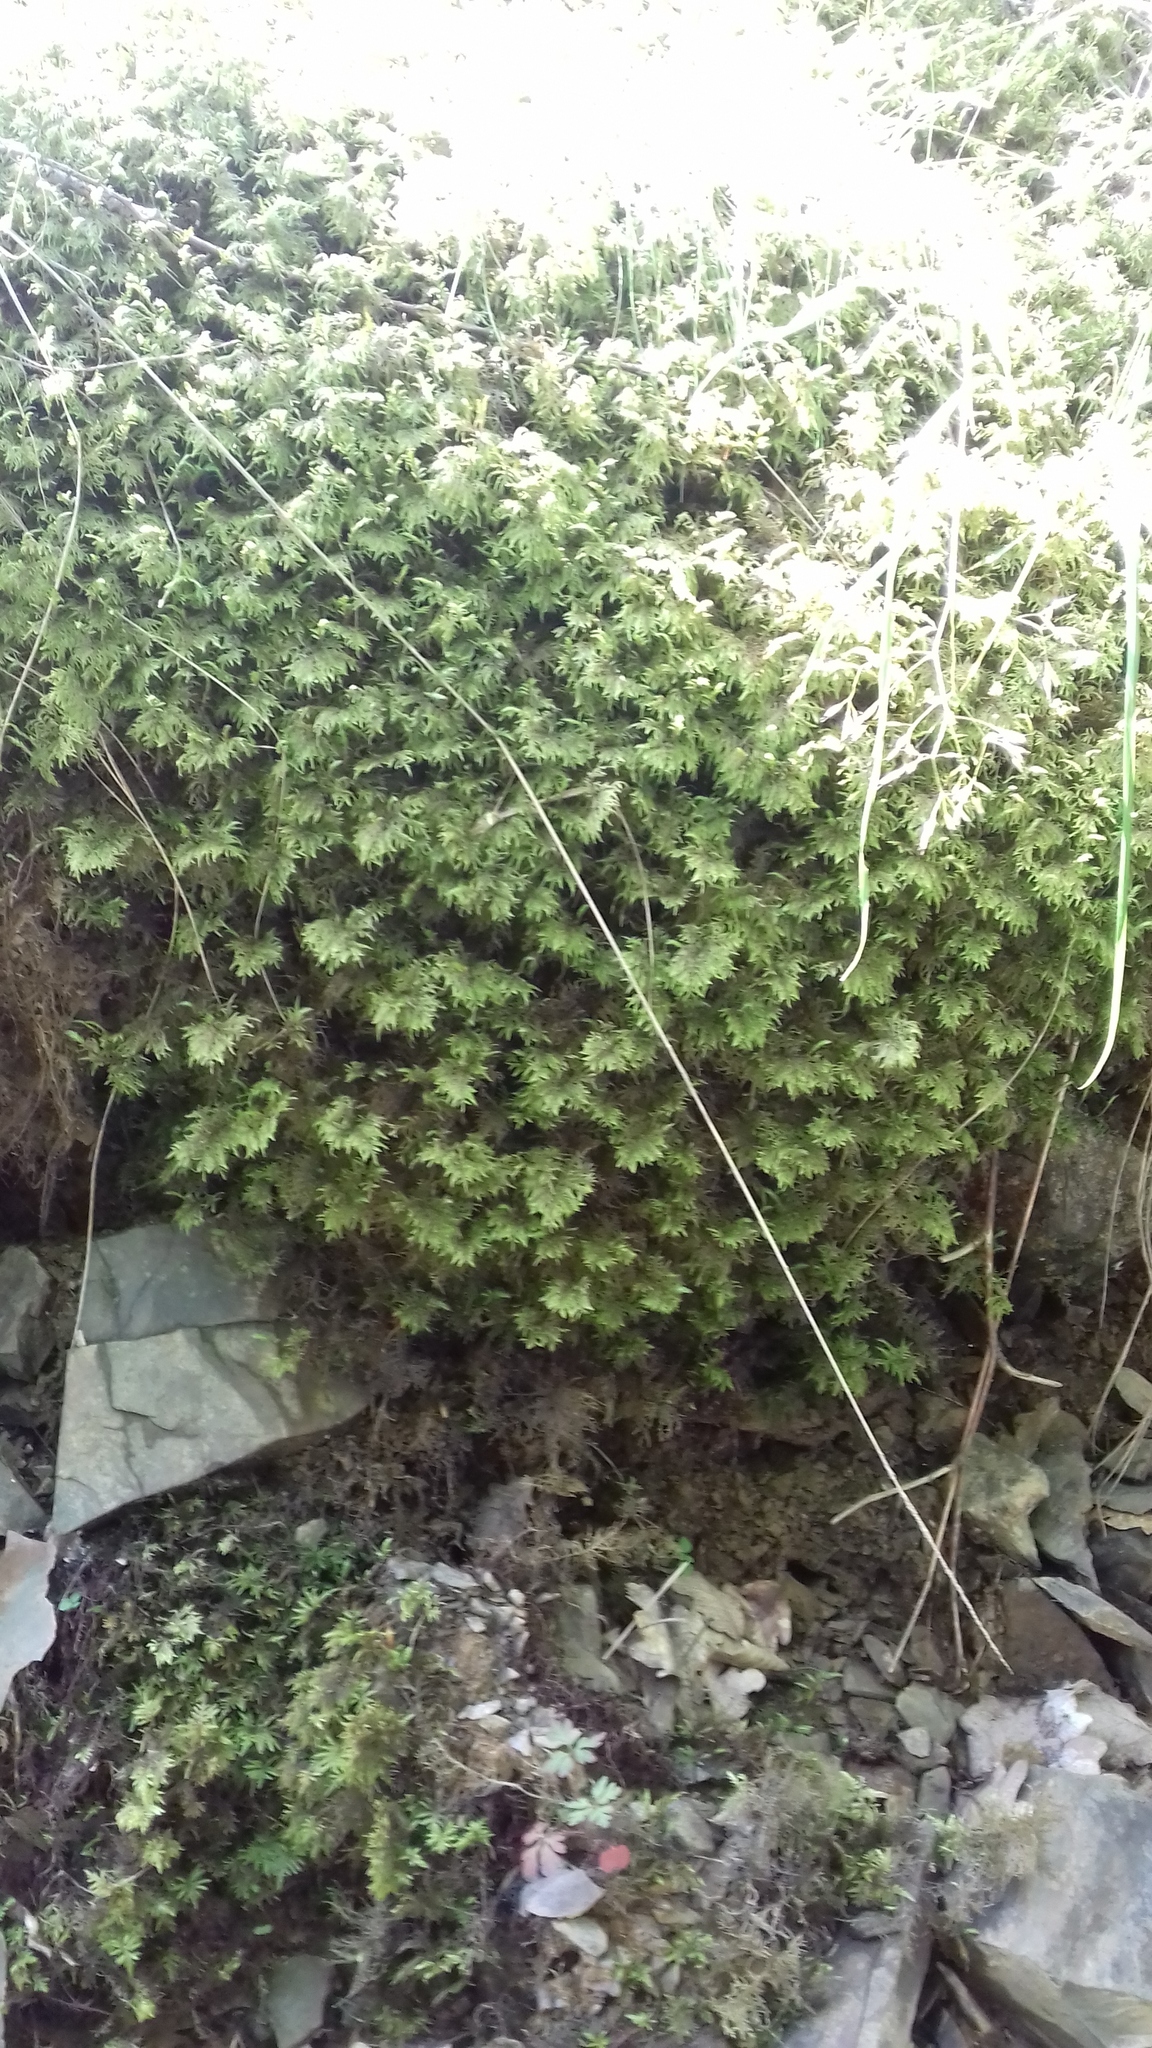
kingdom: Plantae
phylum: Bryophyta
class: Bryopsida
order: Hypnales
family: Hylocomiaceae
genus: Hylocomium
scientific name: Hylocomium splendens
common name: Stairstep moss
